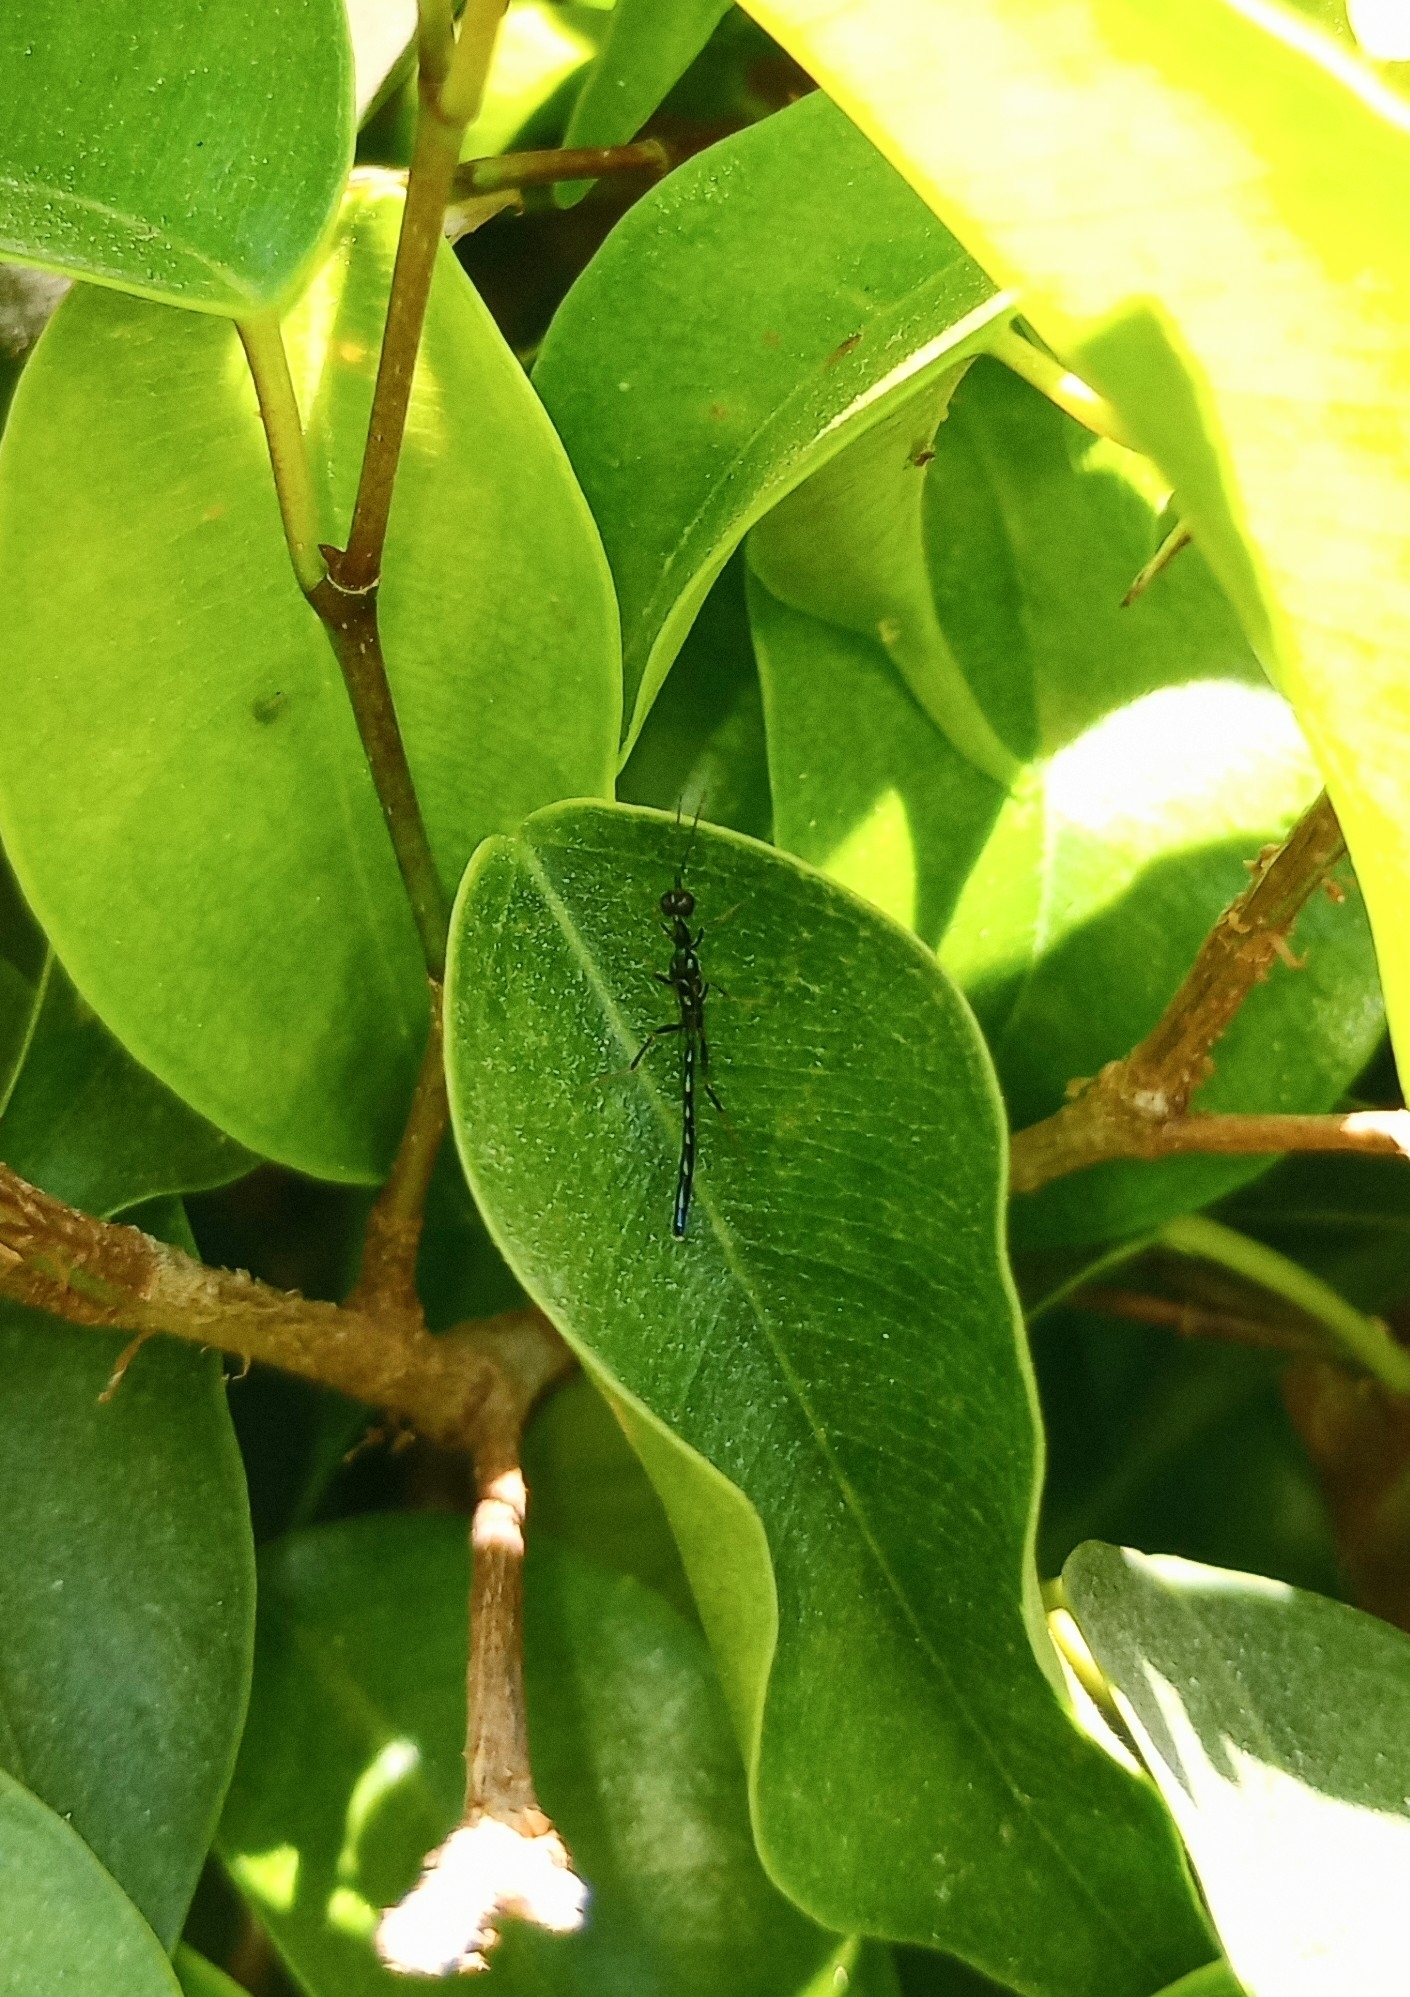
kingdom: Animalia
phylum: Arthropoda
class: Insecta
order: Hymenoptera
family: Pteromalidae
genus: Doddifoenus
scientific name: Doddifoenus
